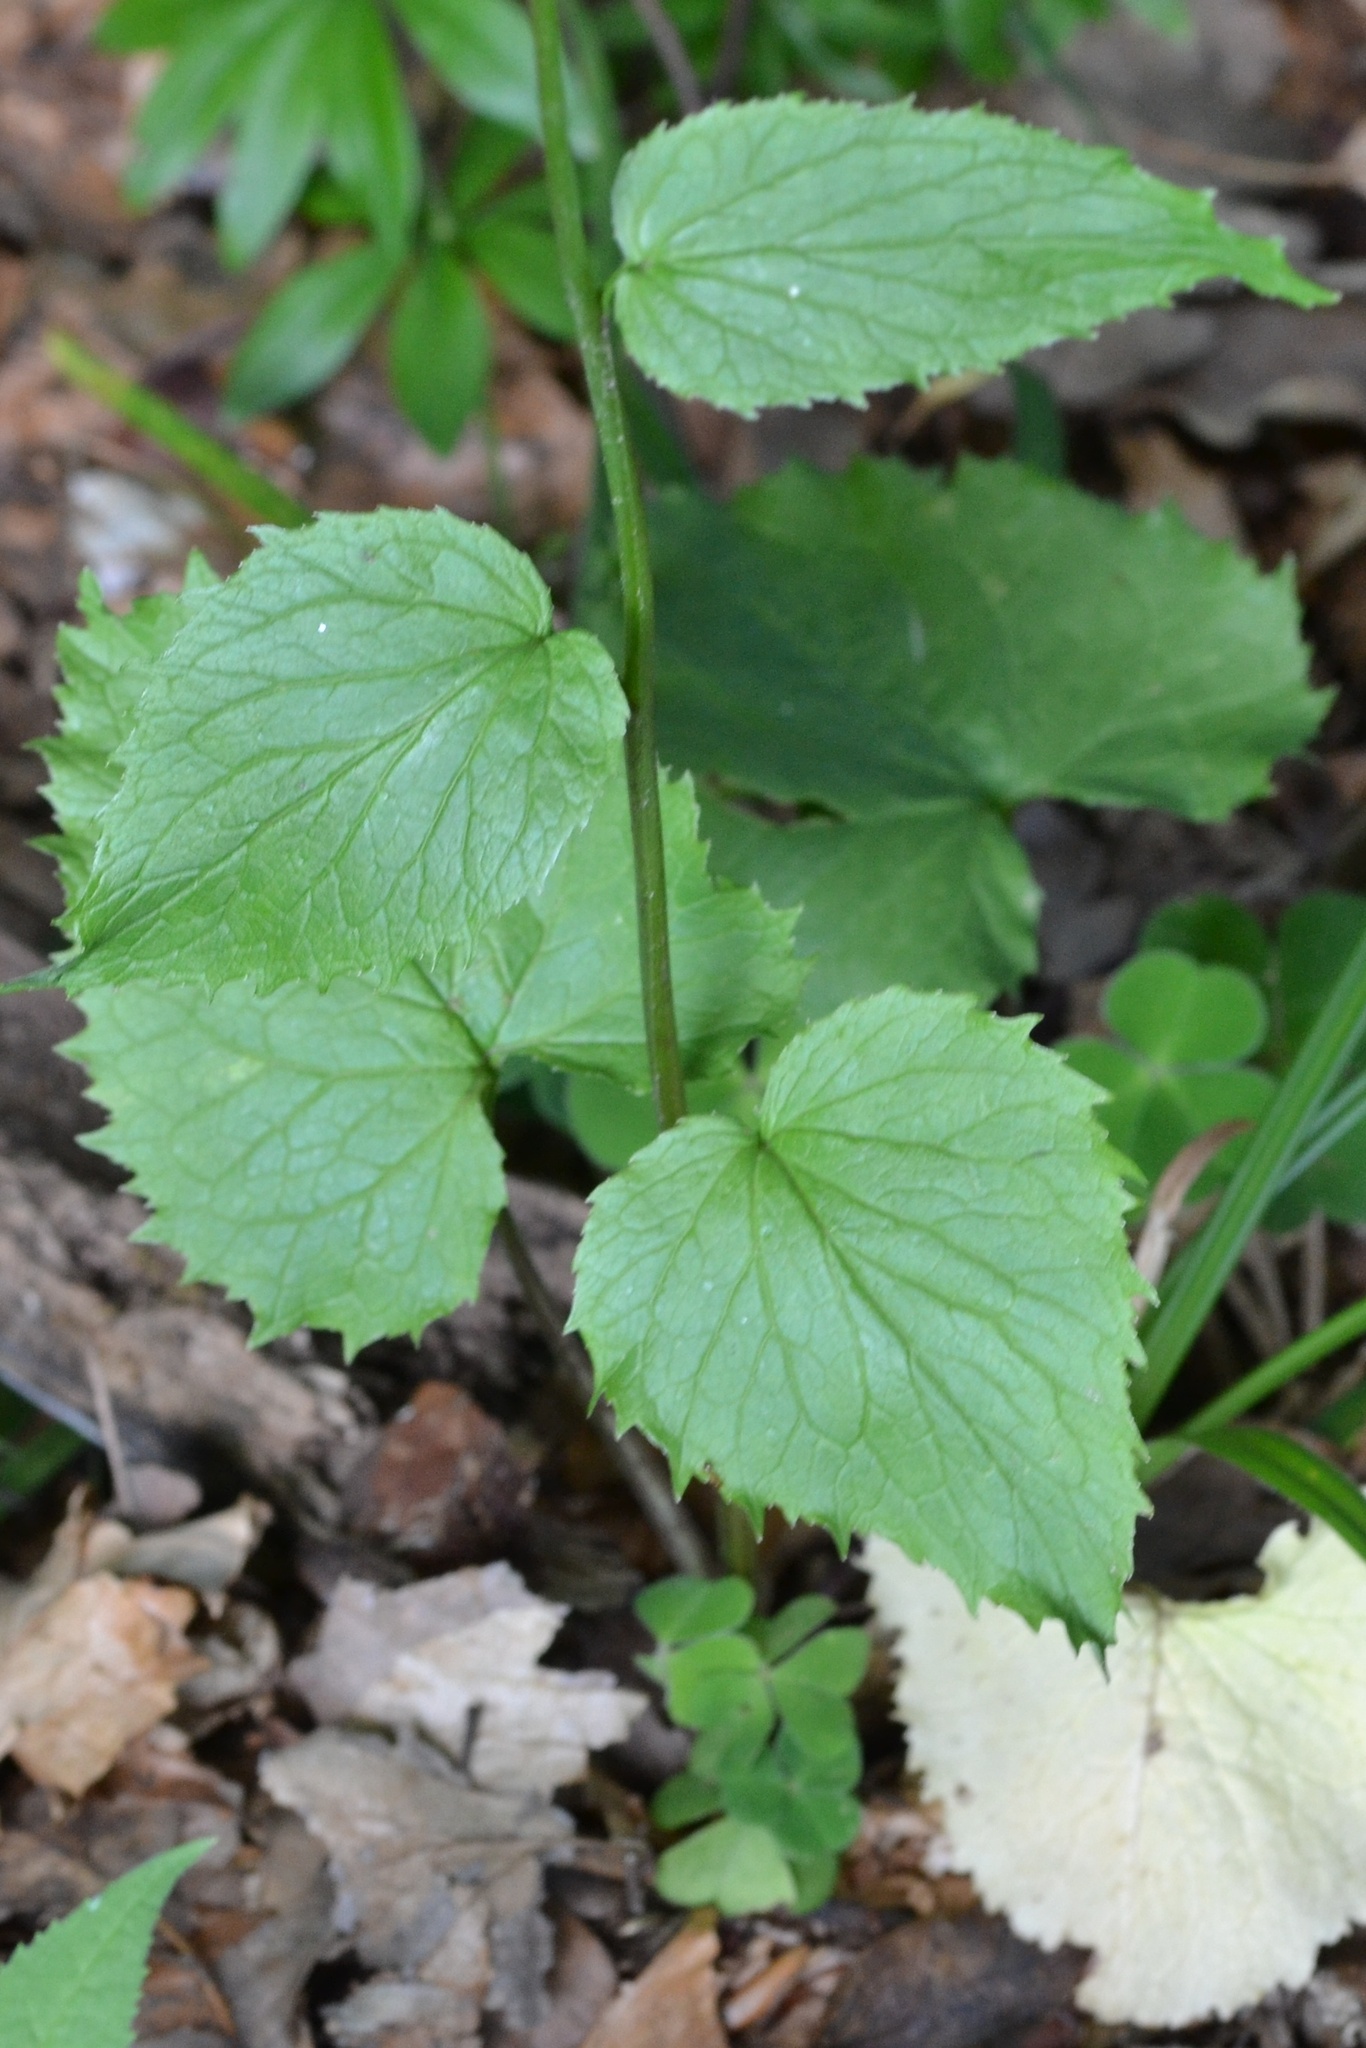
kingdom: Plantae
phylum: Tracheophyta
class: Magnoliopsida
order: Asterales
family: Campanulaceae
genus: Phyteuma
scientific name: Phyteuma spicatum
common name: Spiked rampion
